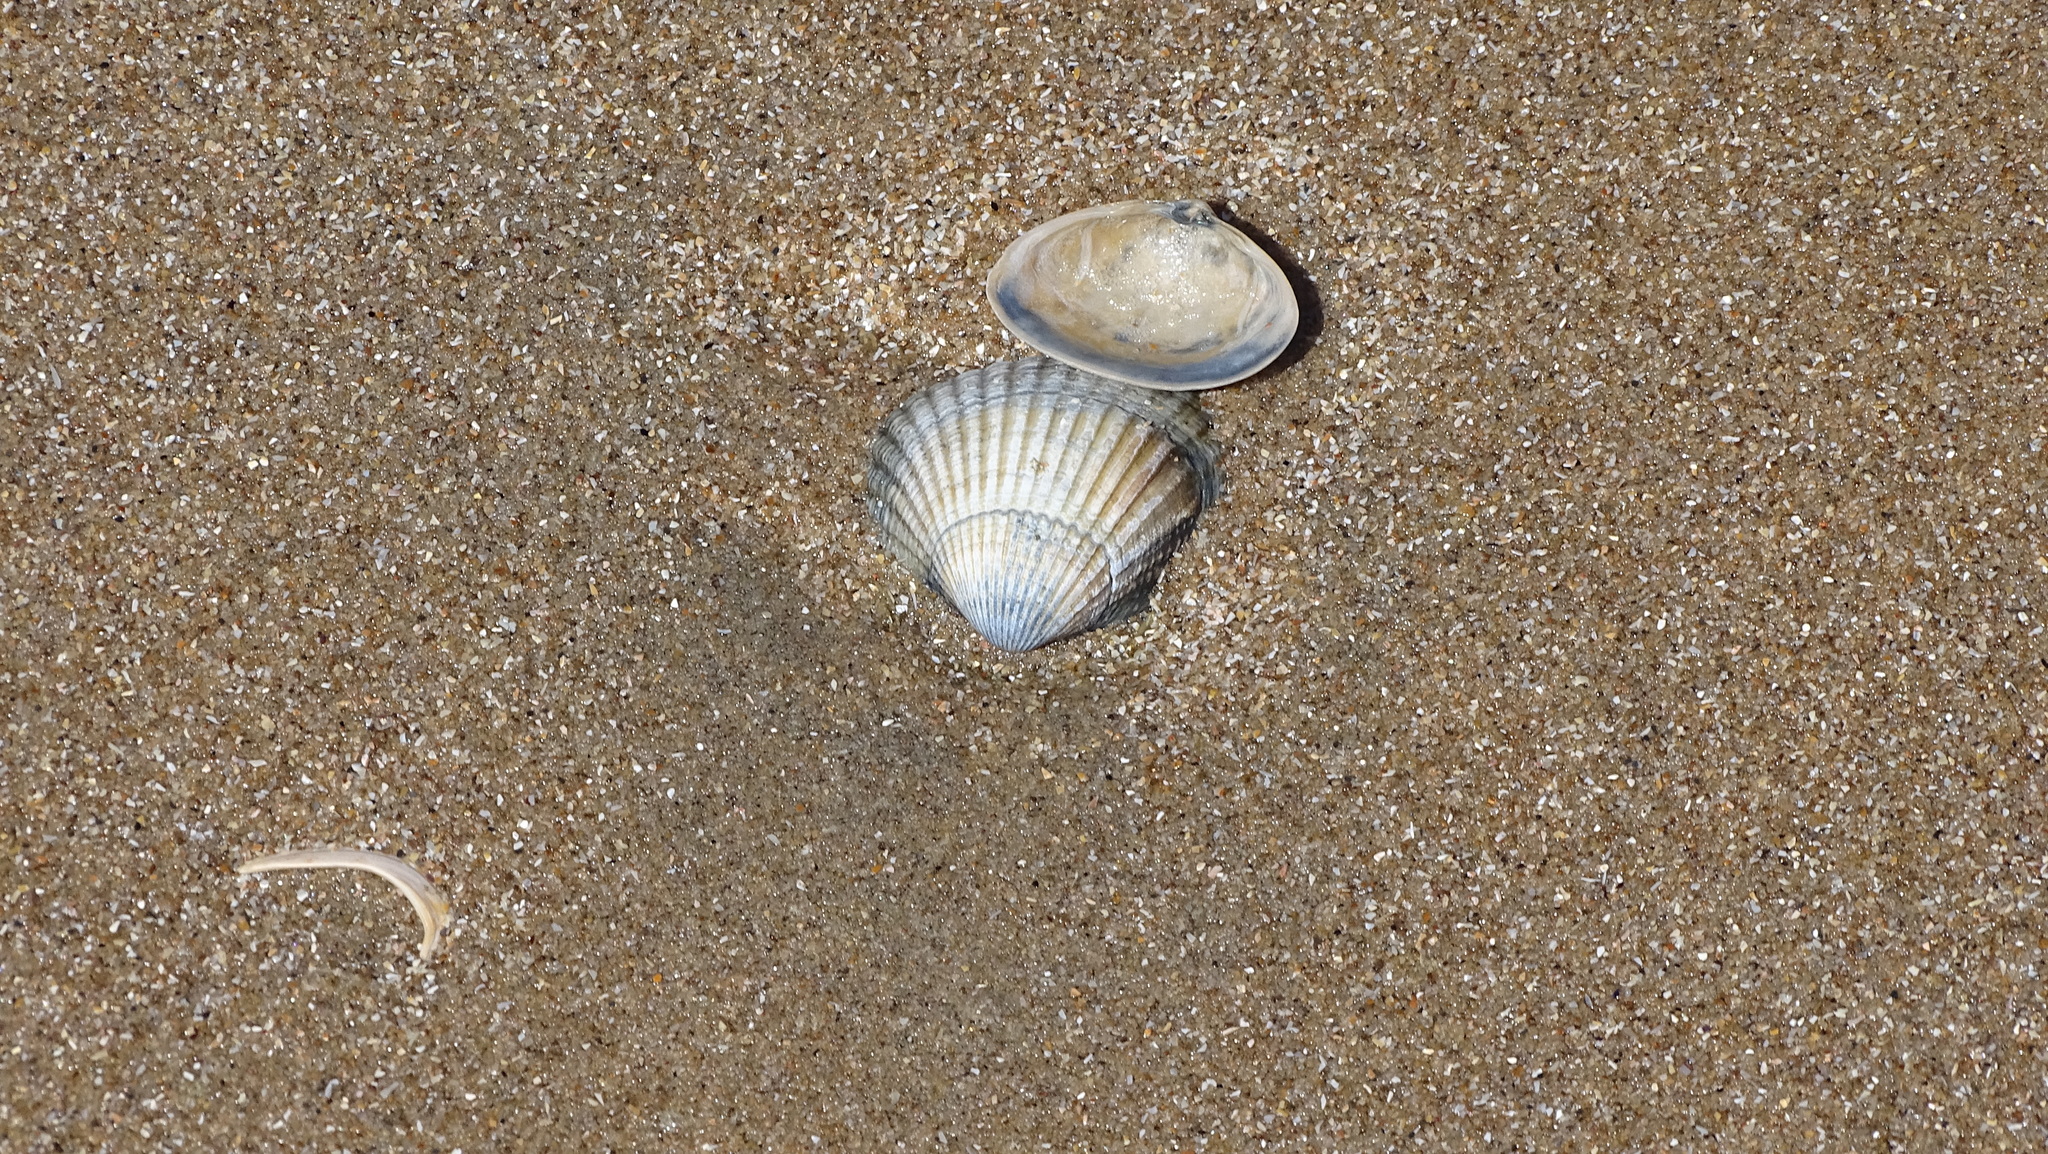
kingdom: Animalia
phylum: Mollusca
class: Bivalvia
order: Cardiida
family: Cardiidae
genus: Cerastoderma
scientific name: Cerastoderma edule
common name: Common cockle
